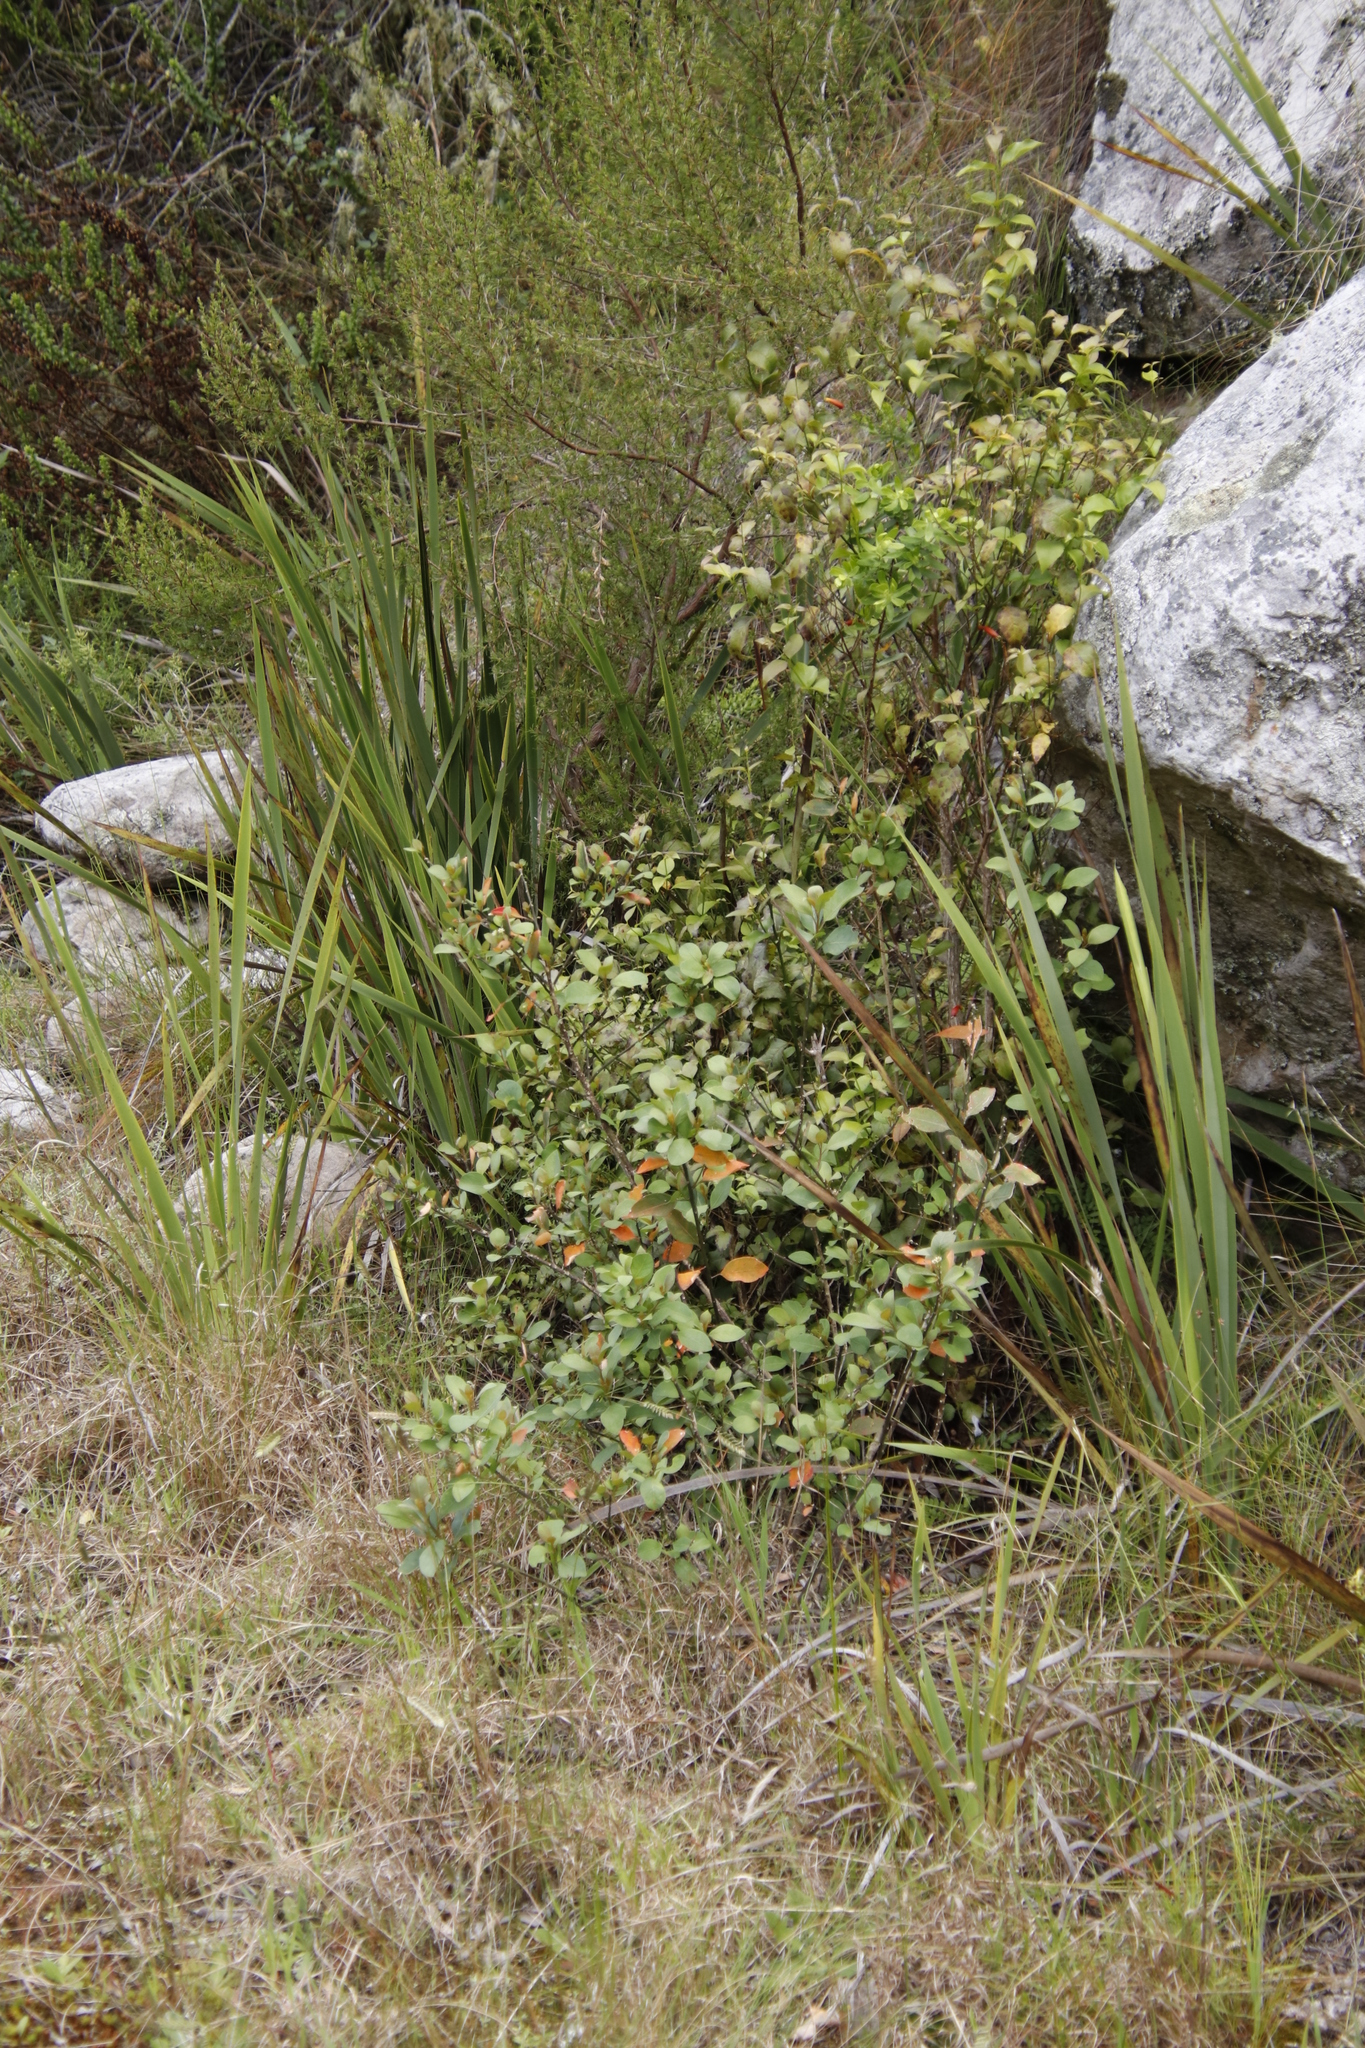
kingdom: Plantae
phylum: Tracheophyta
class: Magnoliopsida
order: Malpighiales
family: Peraceae
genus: Clutia
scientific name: Clutia pulchella
